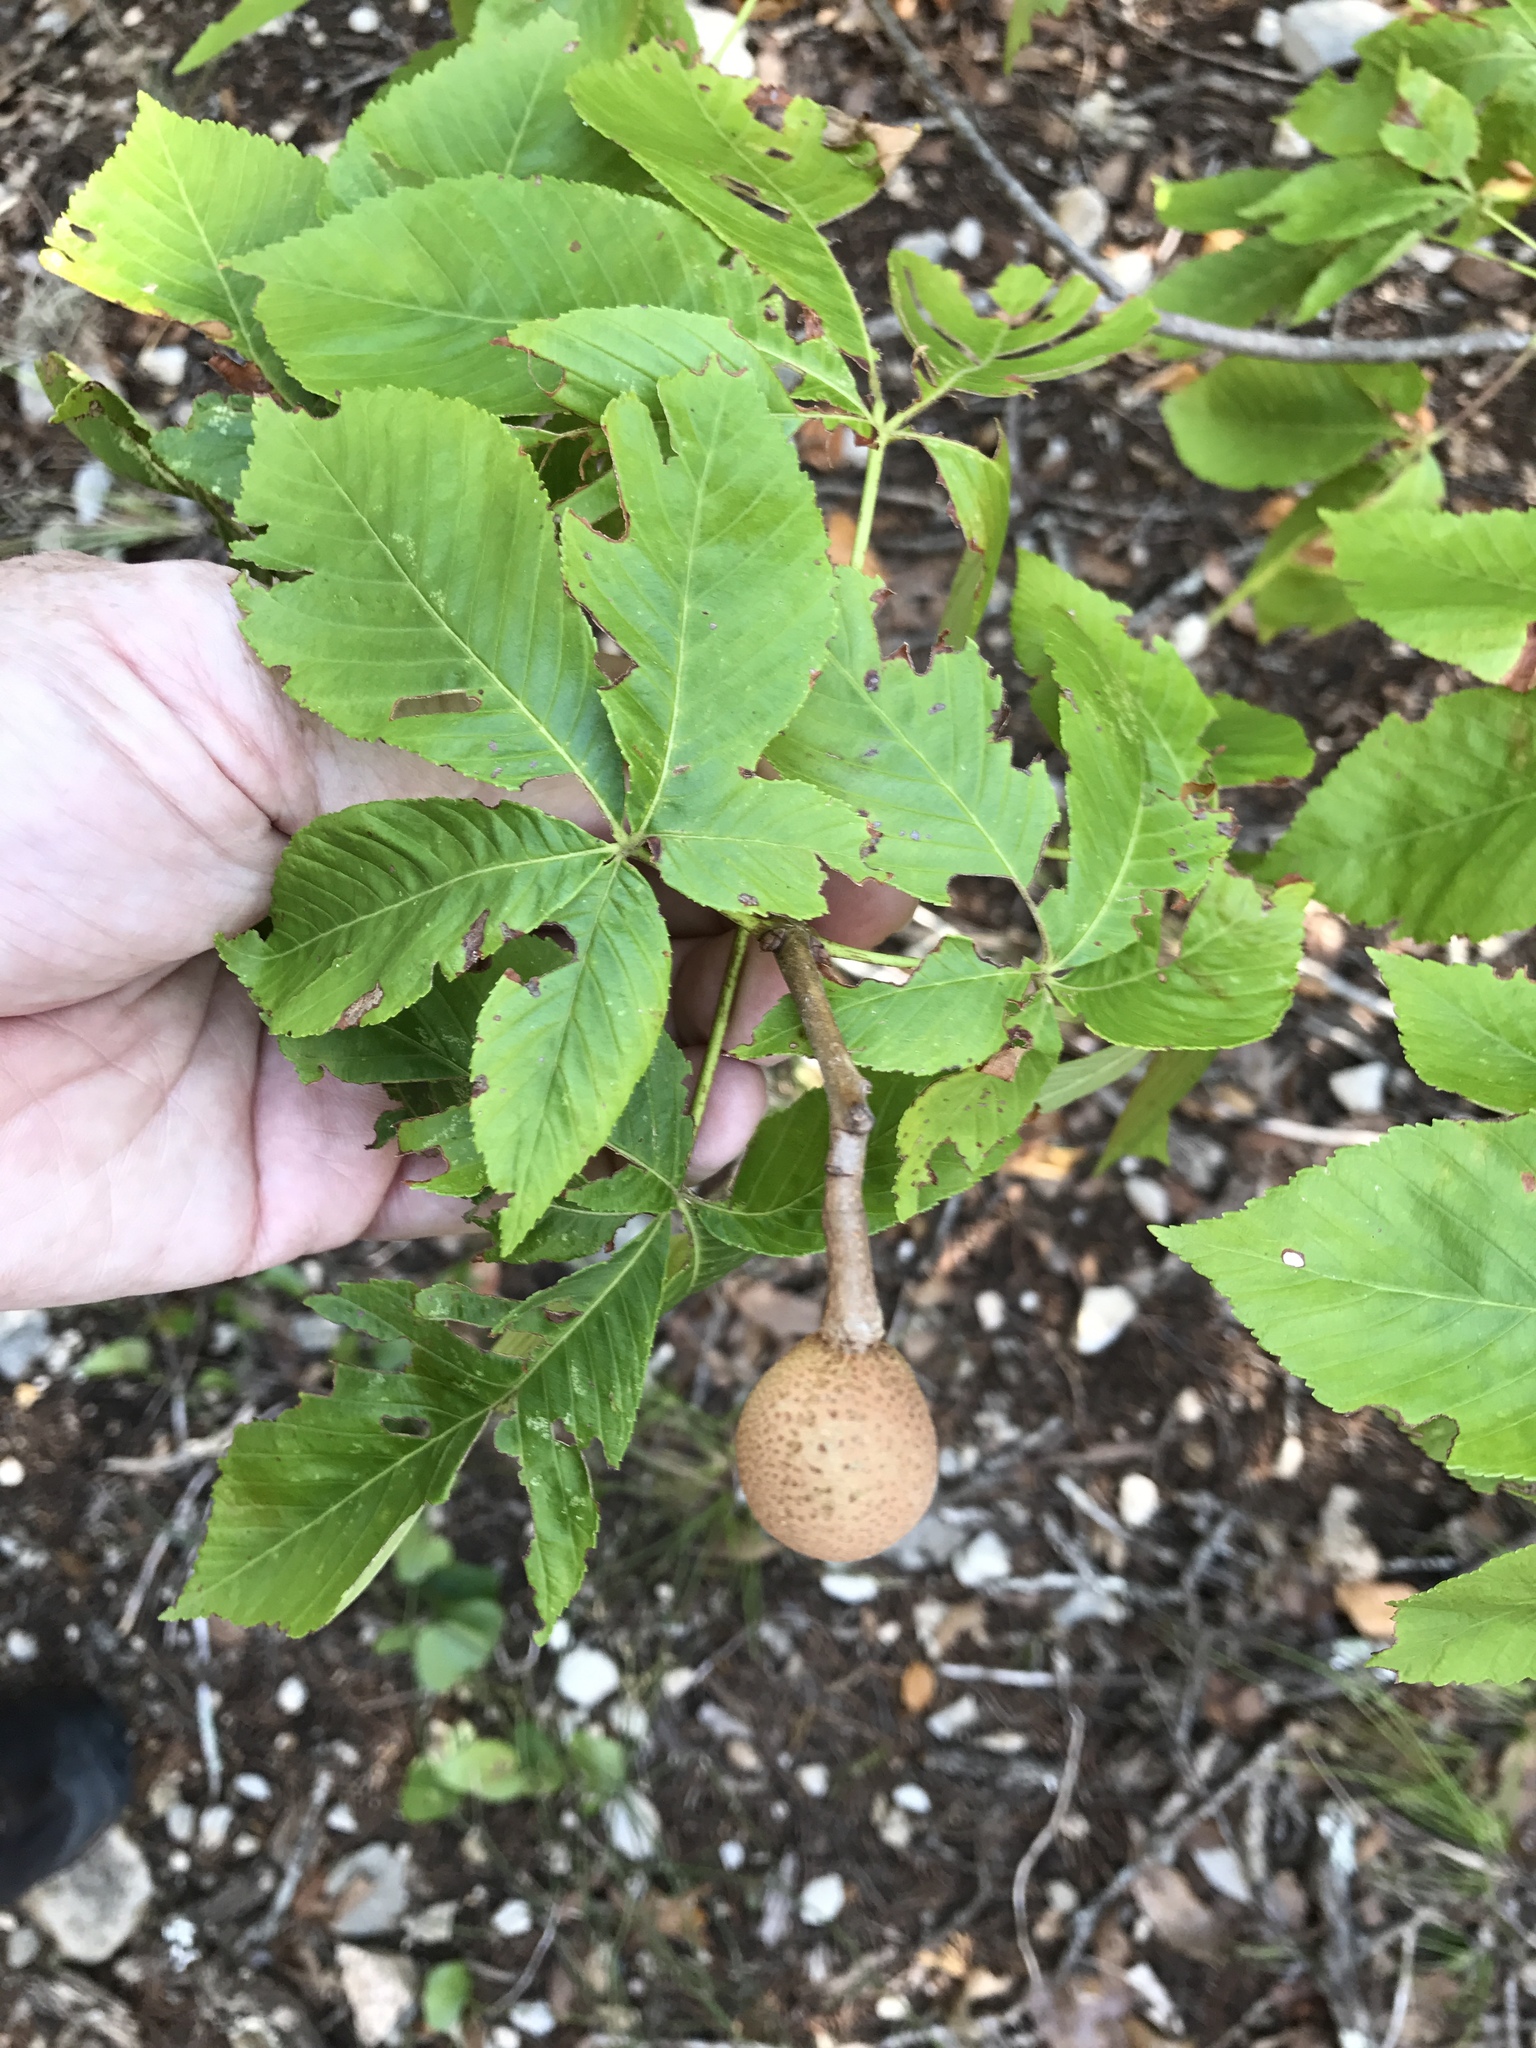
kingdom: Plantae
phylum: Tracheophyta
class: Magnoliopsida
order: Sapindales
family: Sapindaceae
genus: Aesculus
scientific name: Aesculus pavia
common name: Red buckeye
